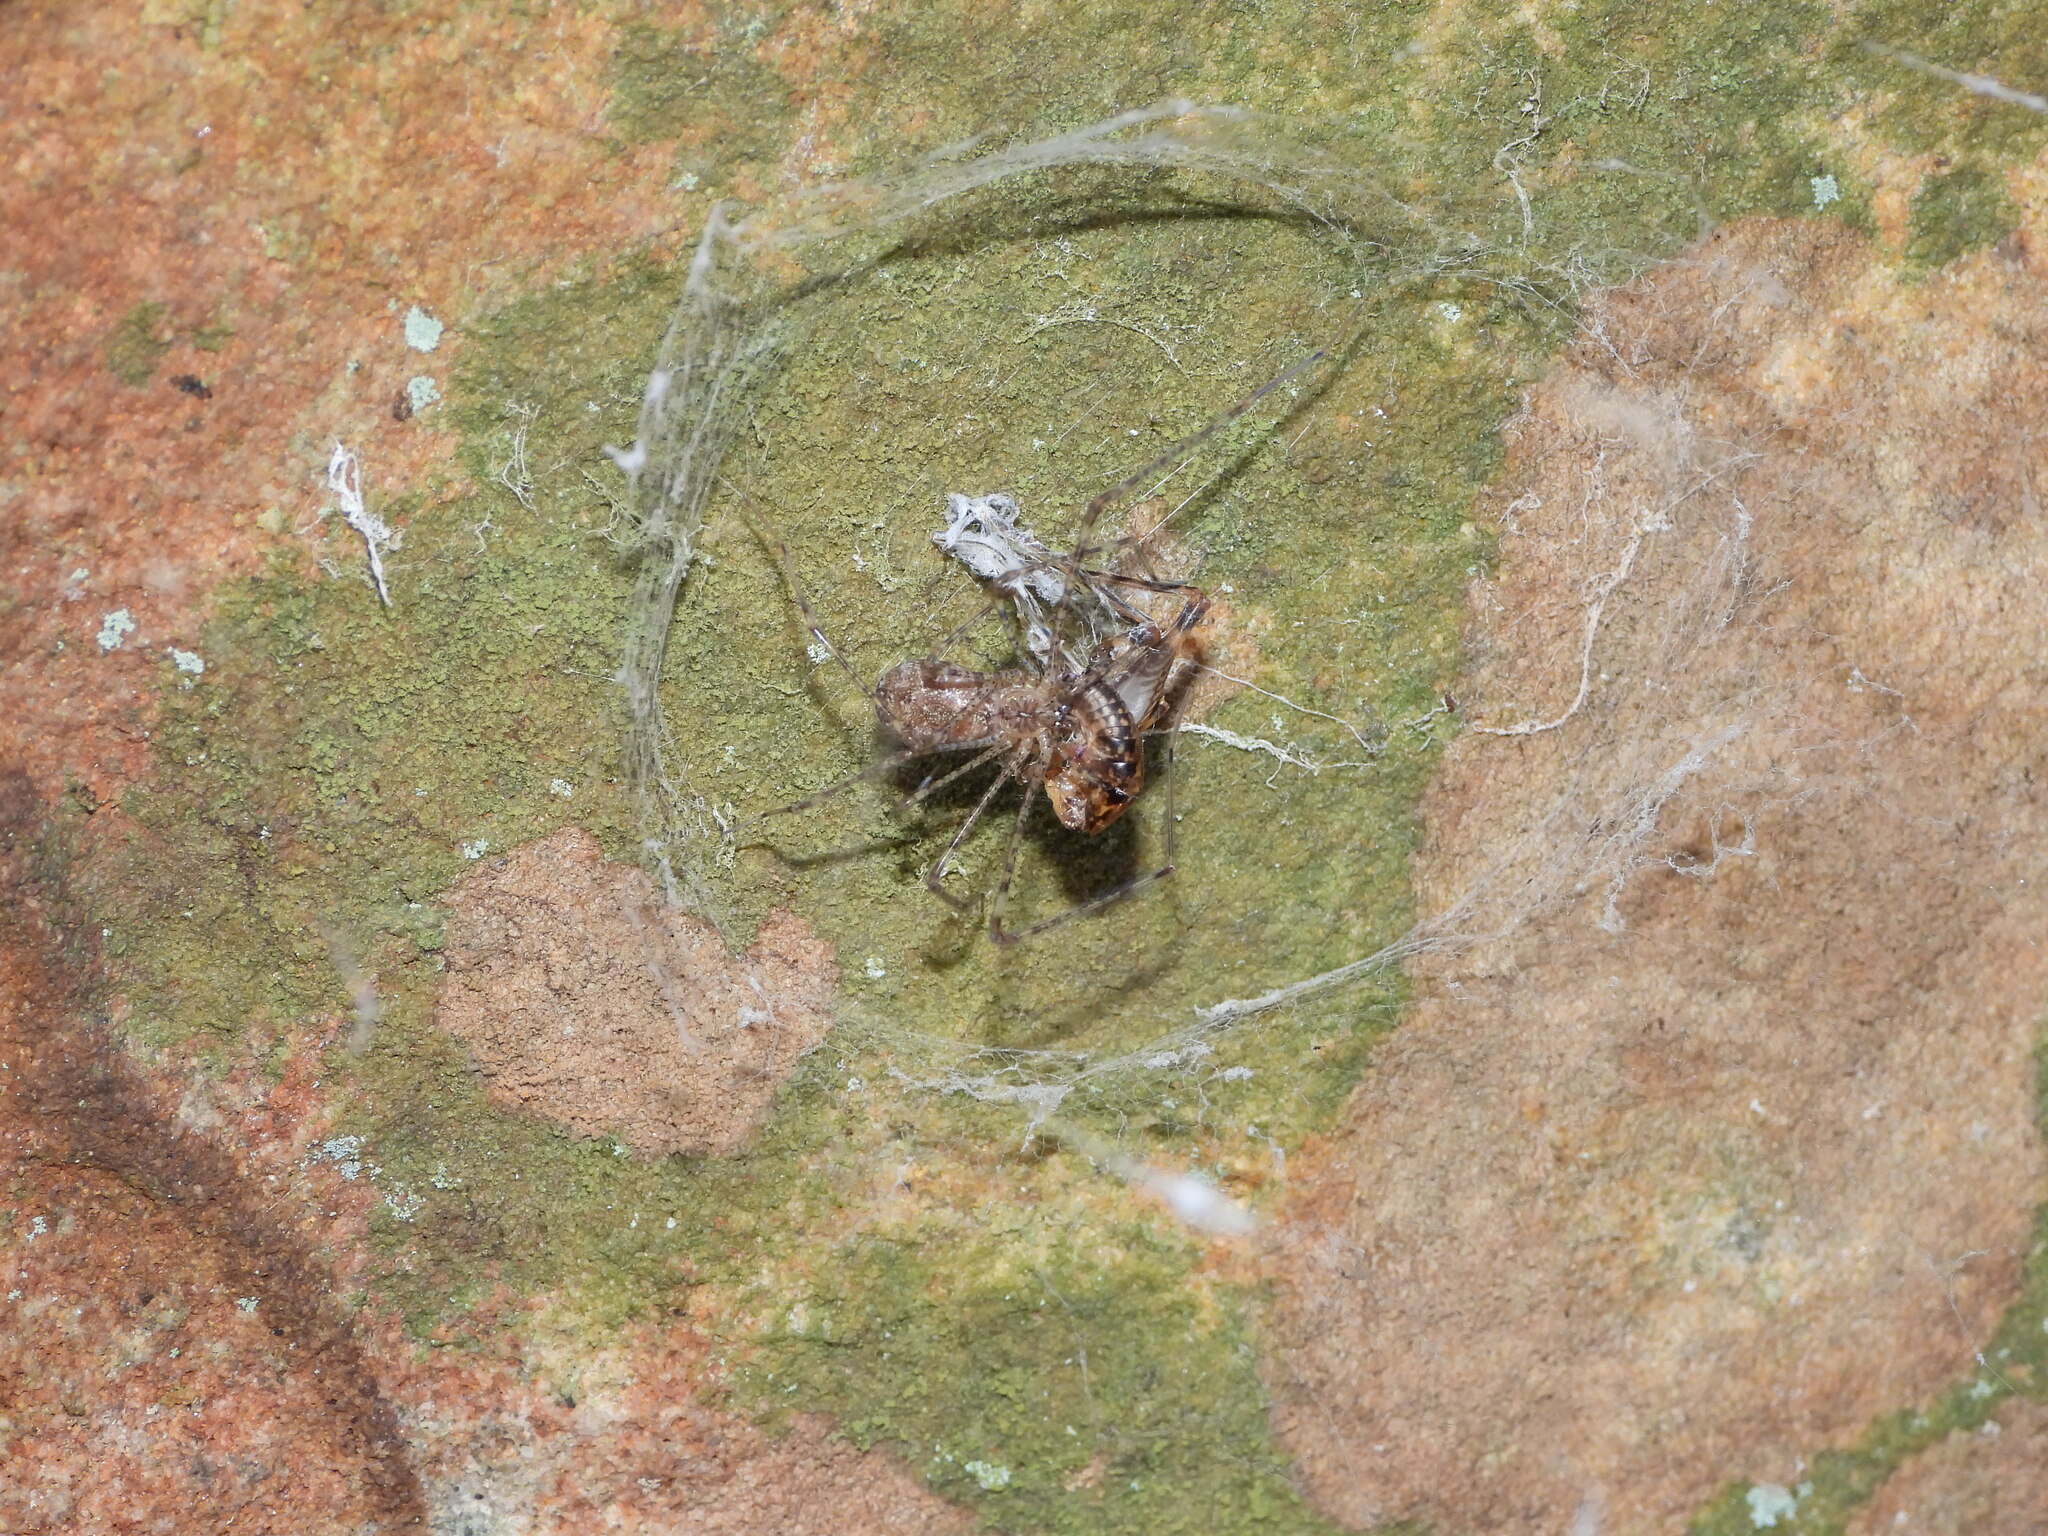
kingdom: Animalia
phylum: Arthropoda
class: Arachnida
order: Araneae
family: Hypochilidae
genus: Hypochilus
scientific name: Hypochilus thorelli
